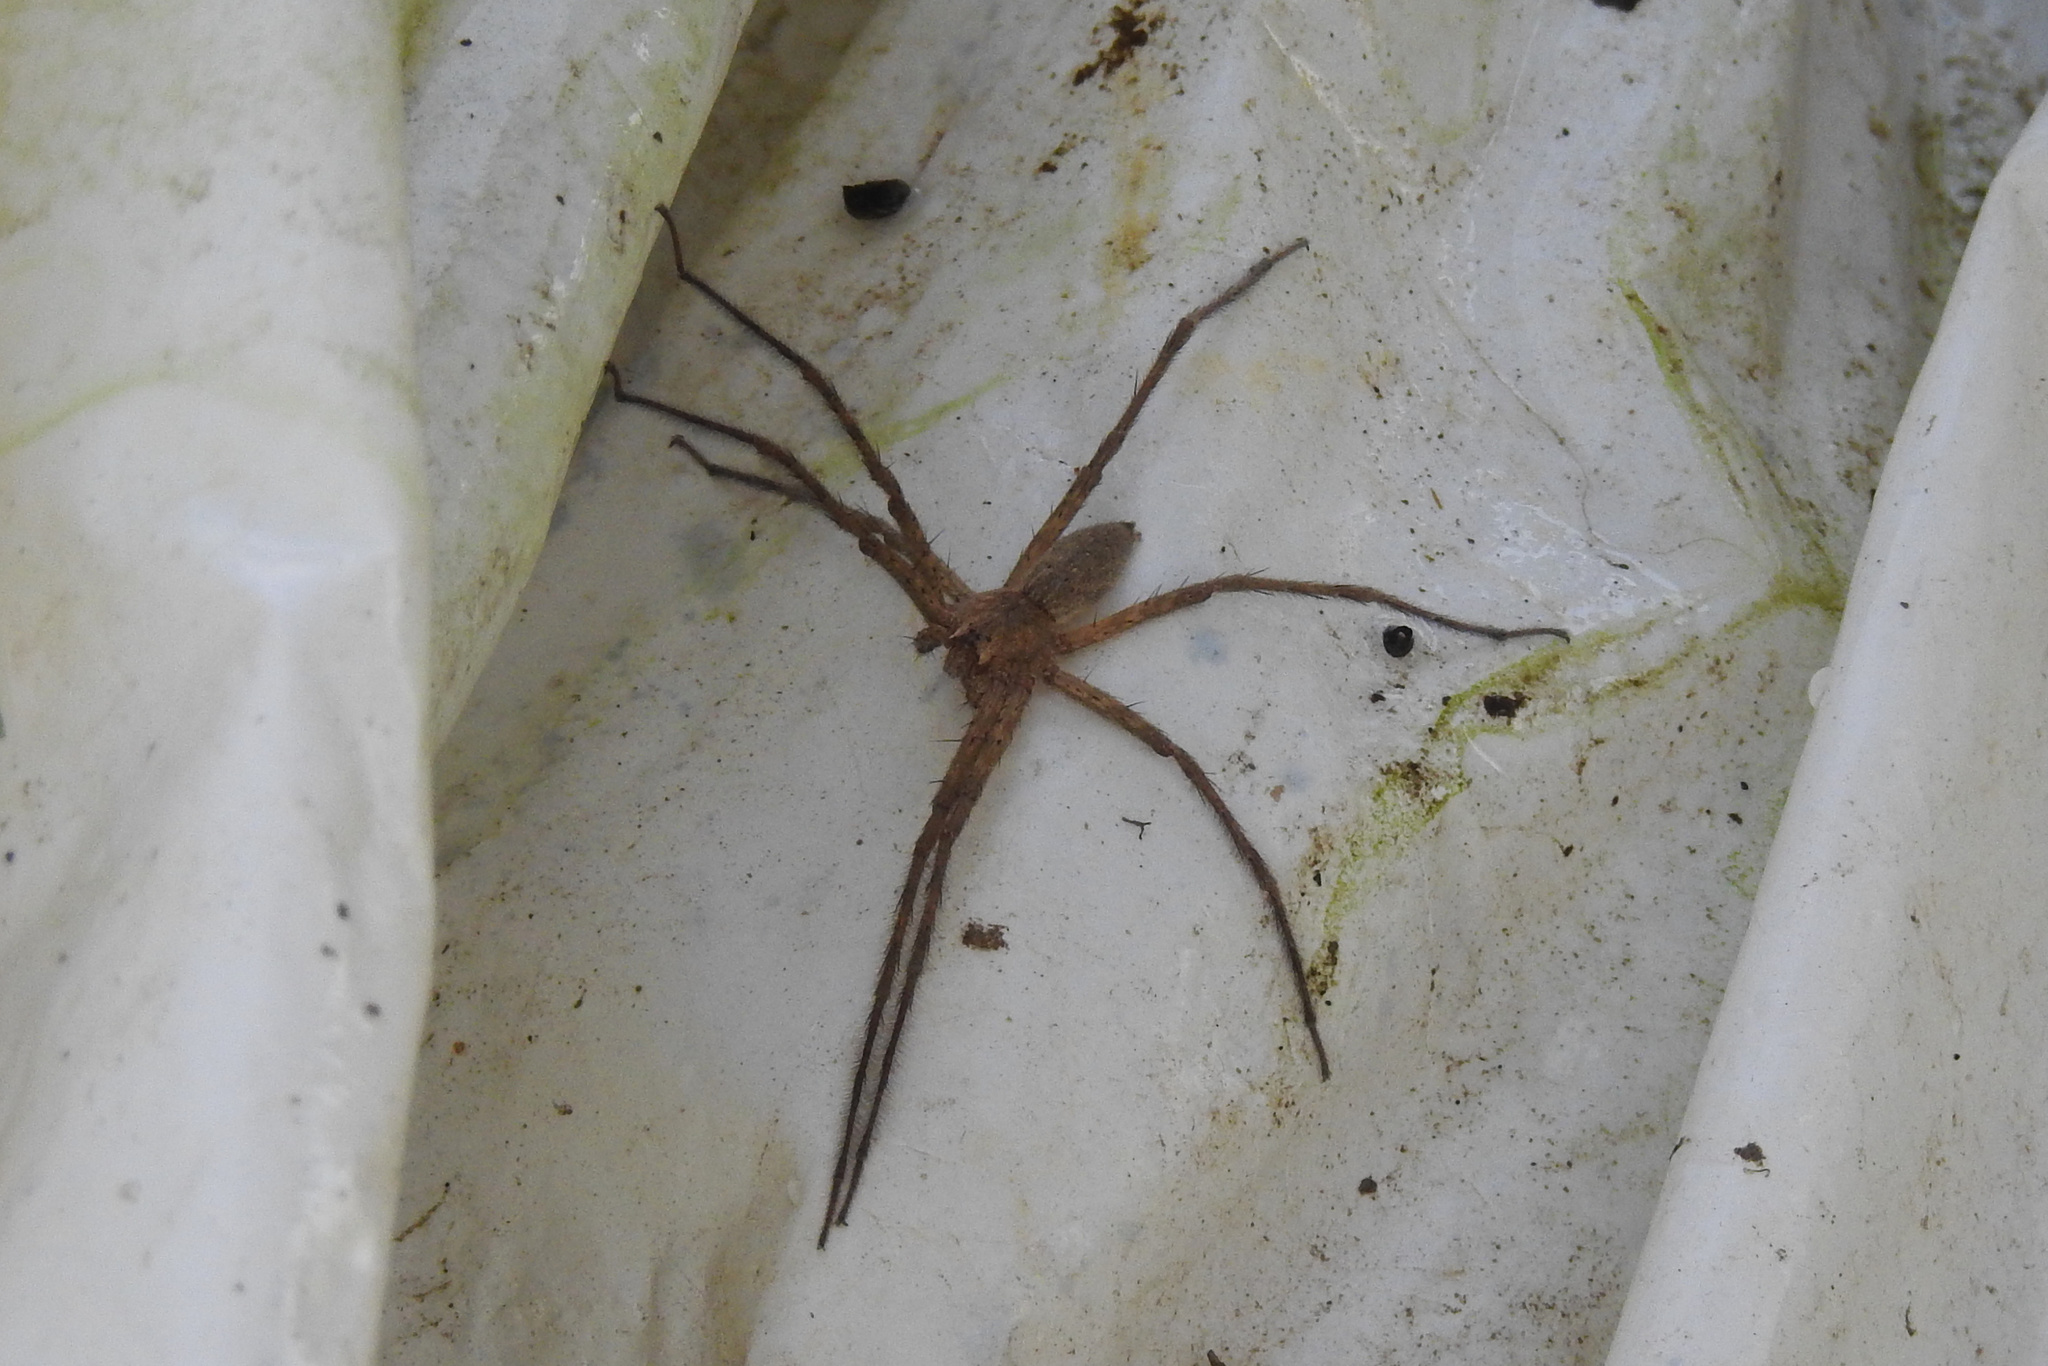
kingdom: Animalia
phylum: Arthropoda
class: Arachnida
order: Araneae
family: Pisauridae
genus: Pisaurina
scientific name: Pisaurina mira
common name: American nursery web spider
